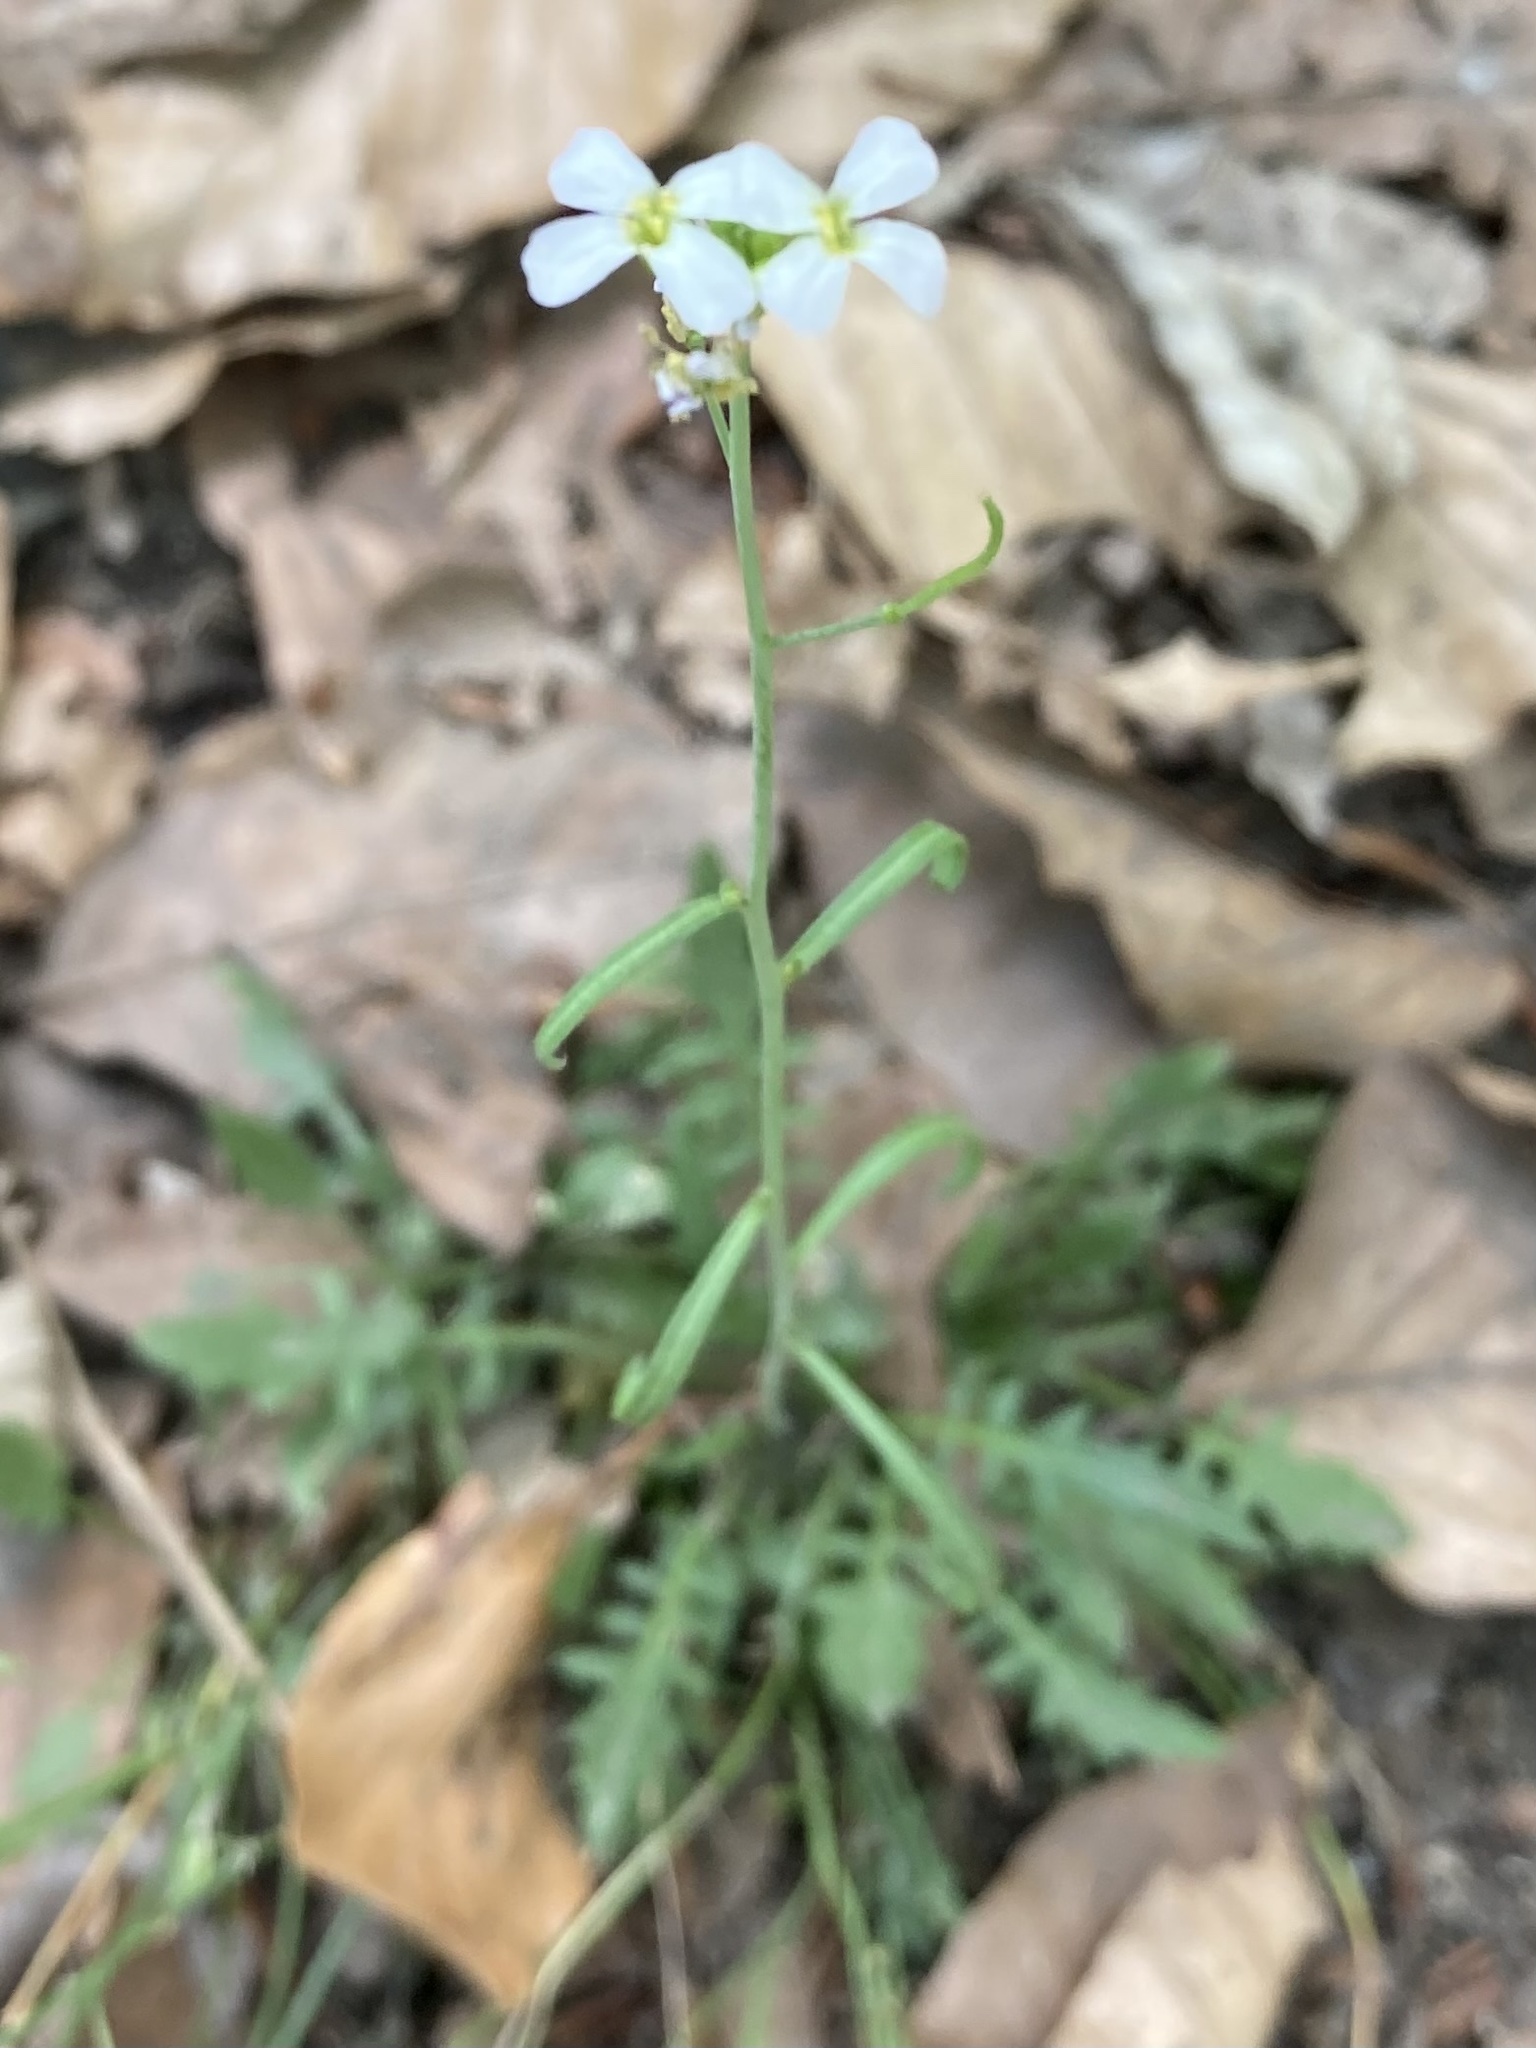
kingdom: Plantae
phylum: Tracheophyta
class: Magnoliopsida
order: Brassicales
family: Brassicaceae
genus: Arabidopsis
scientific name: Arabidopsis arenosa
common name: Sand rock-cress
